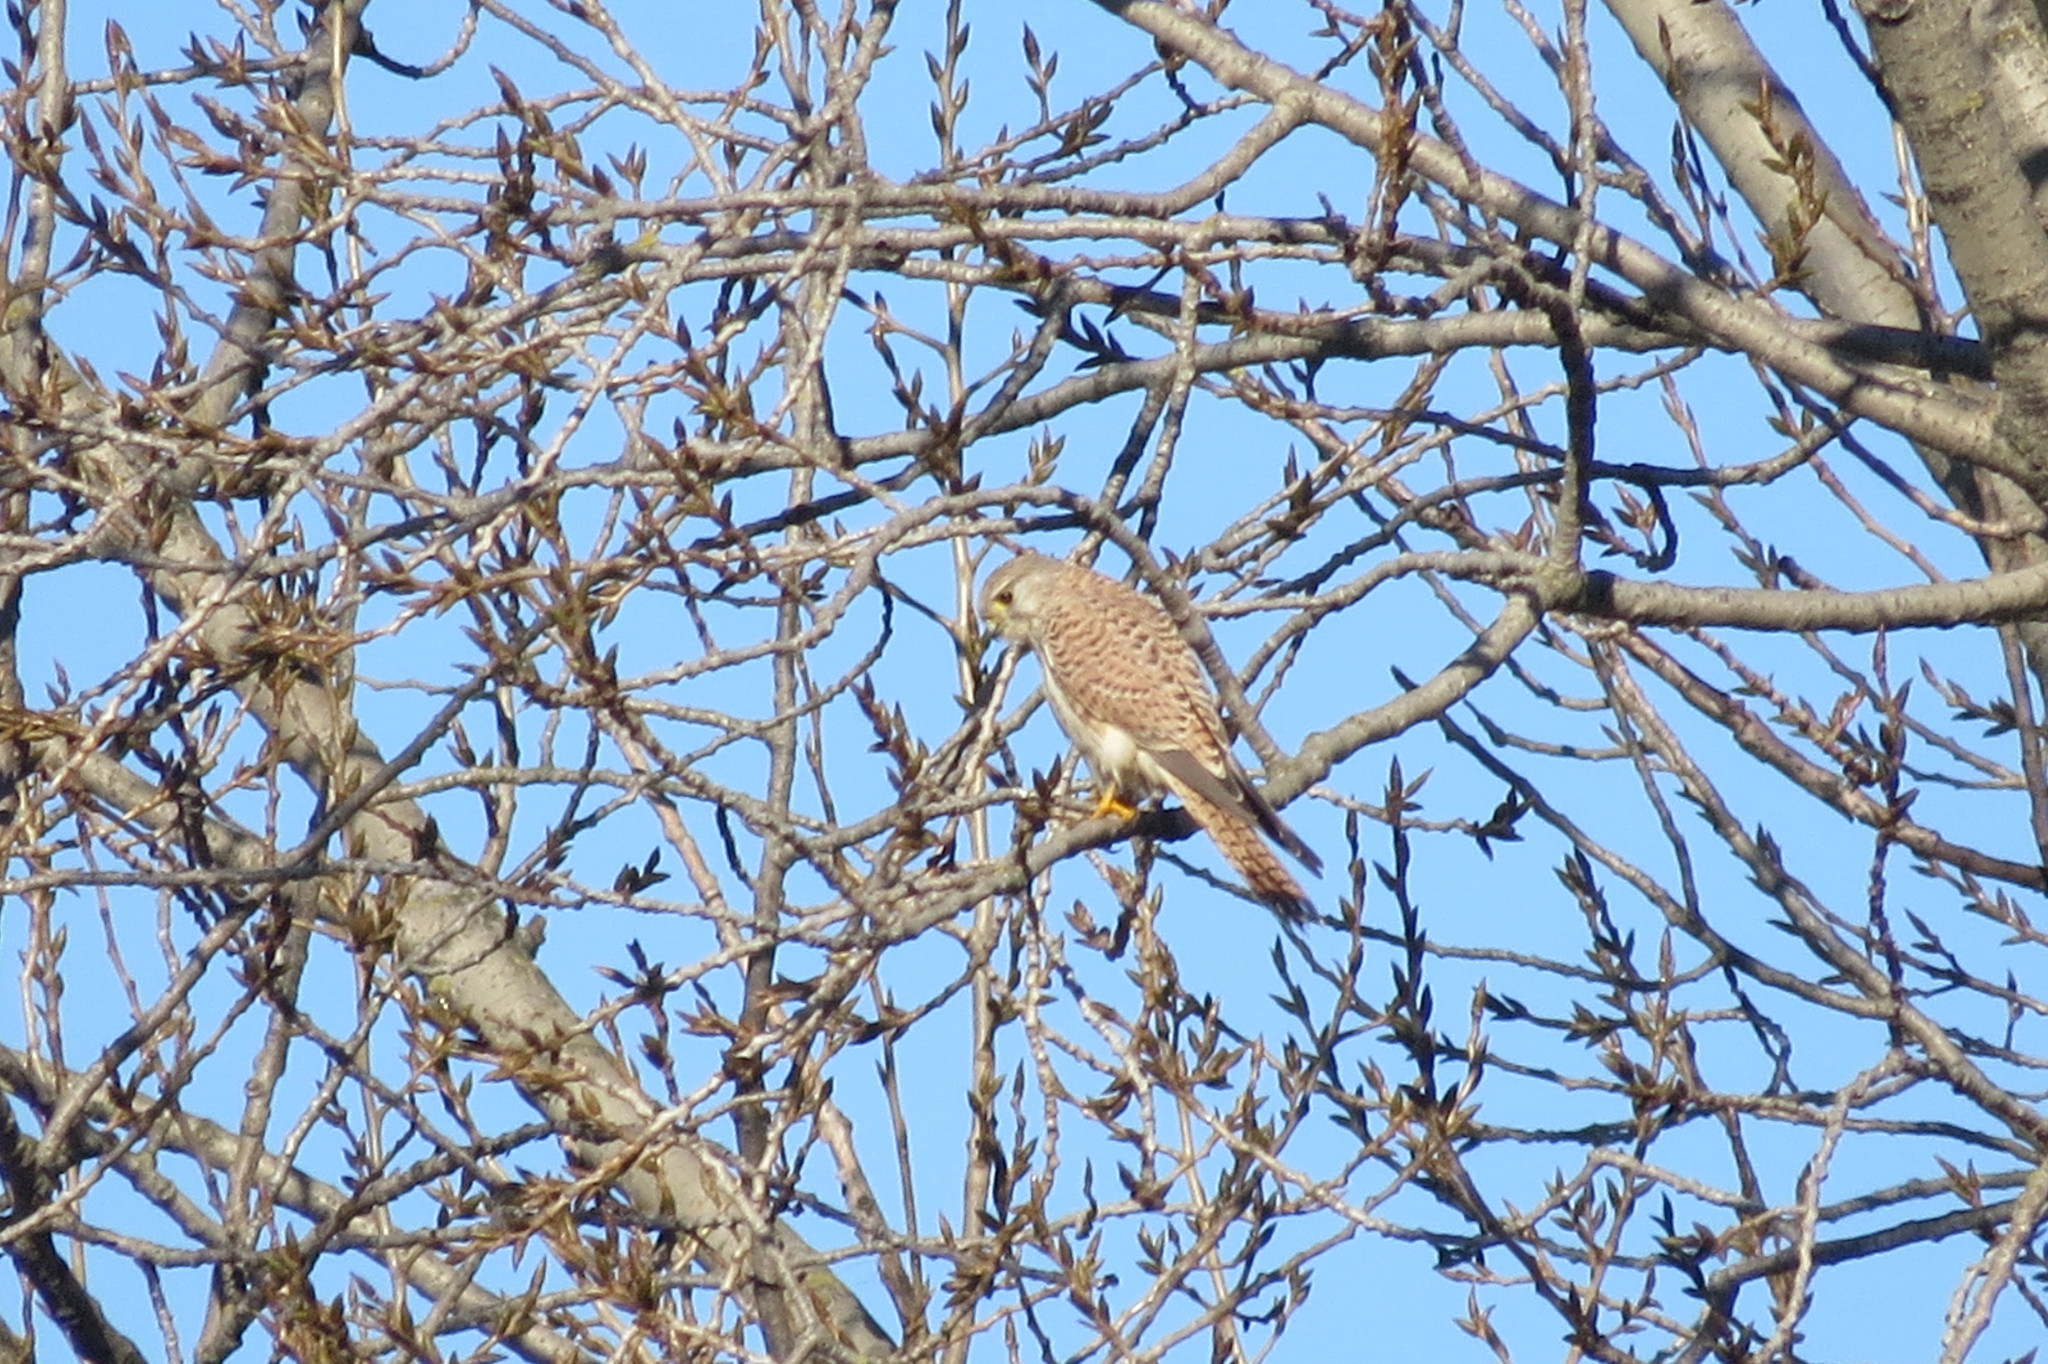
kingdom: Animalia
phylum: Chordata
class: Aves
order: Falconiformes
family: Falconidae
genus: Falco
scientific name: Falco tinnunculus
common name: Common kestrel
